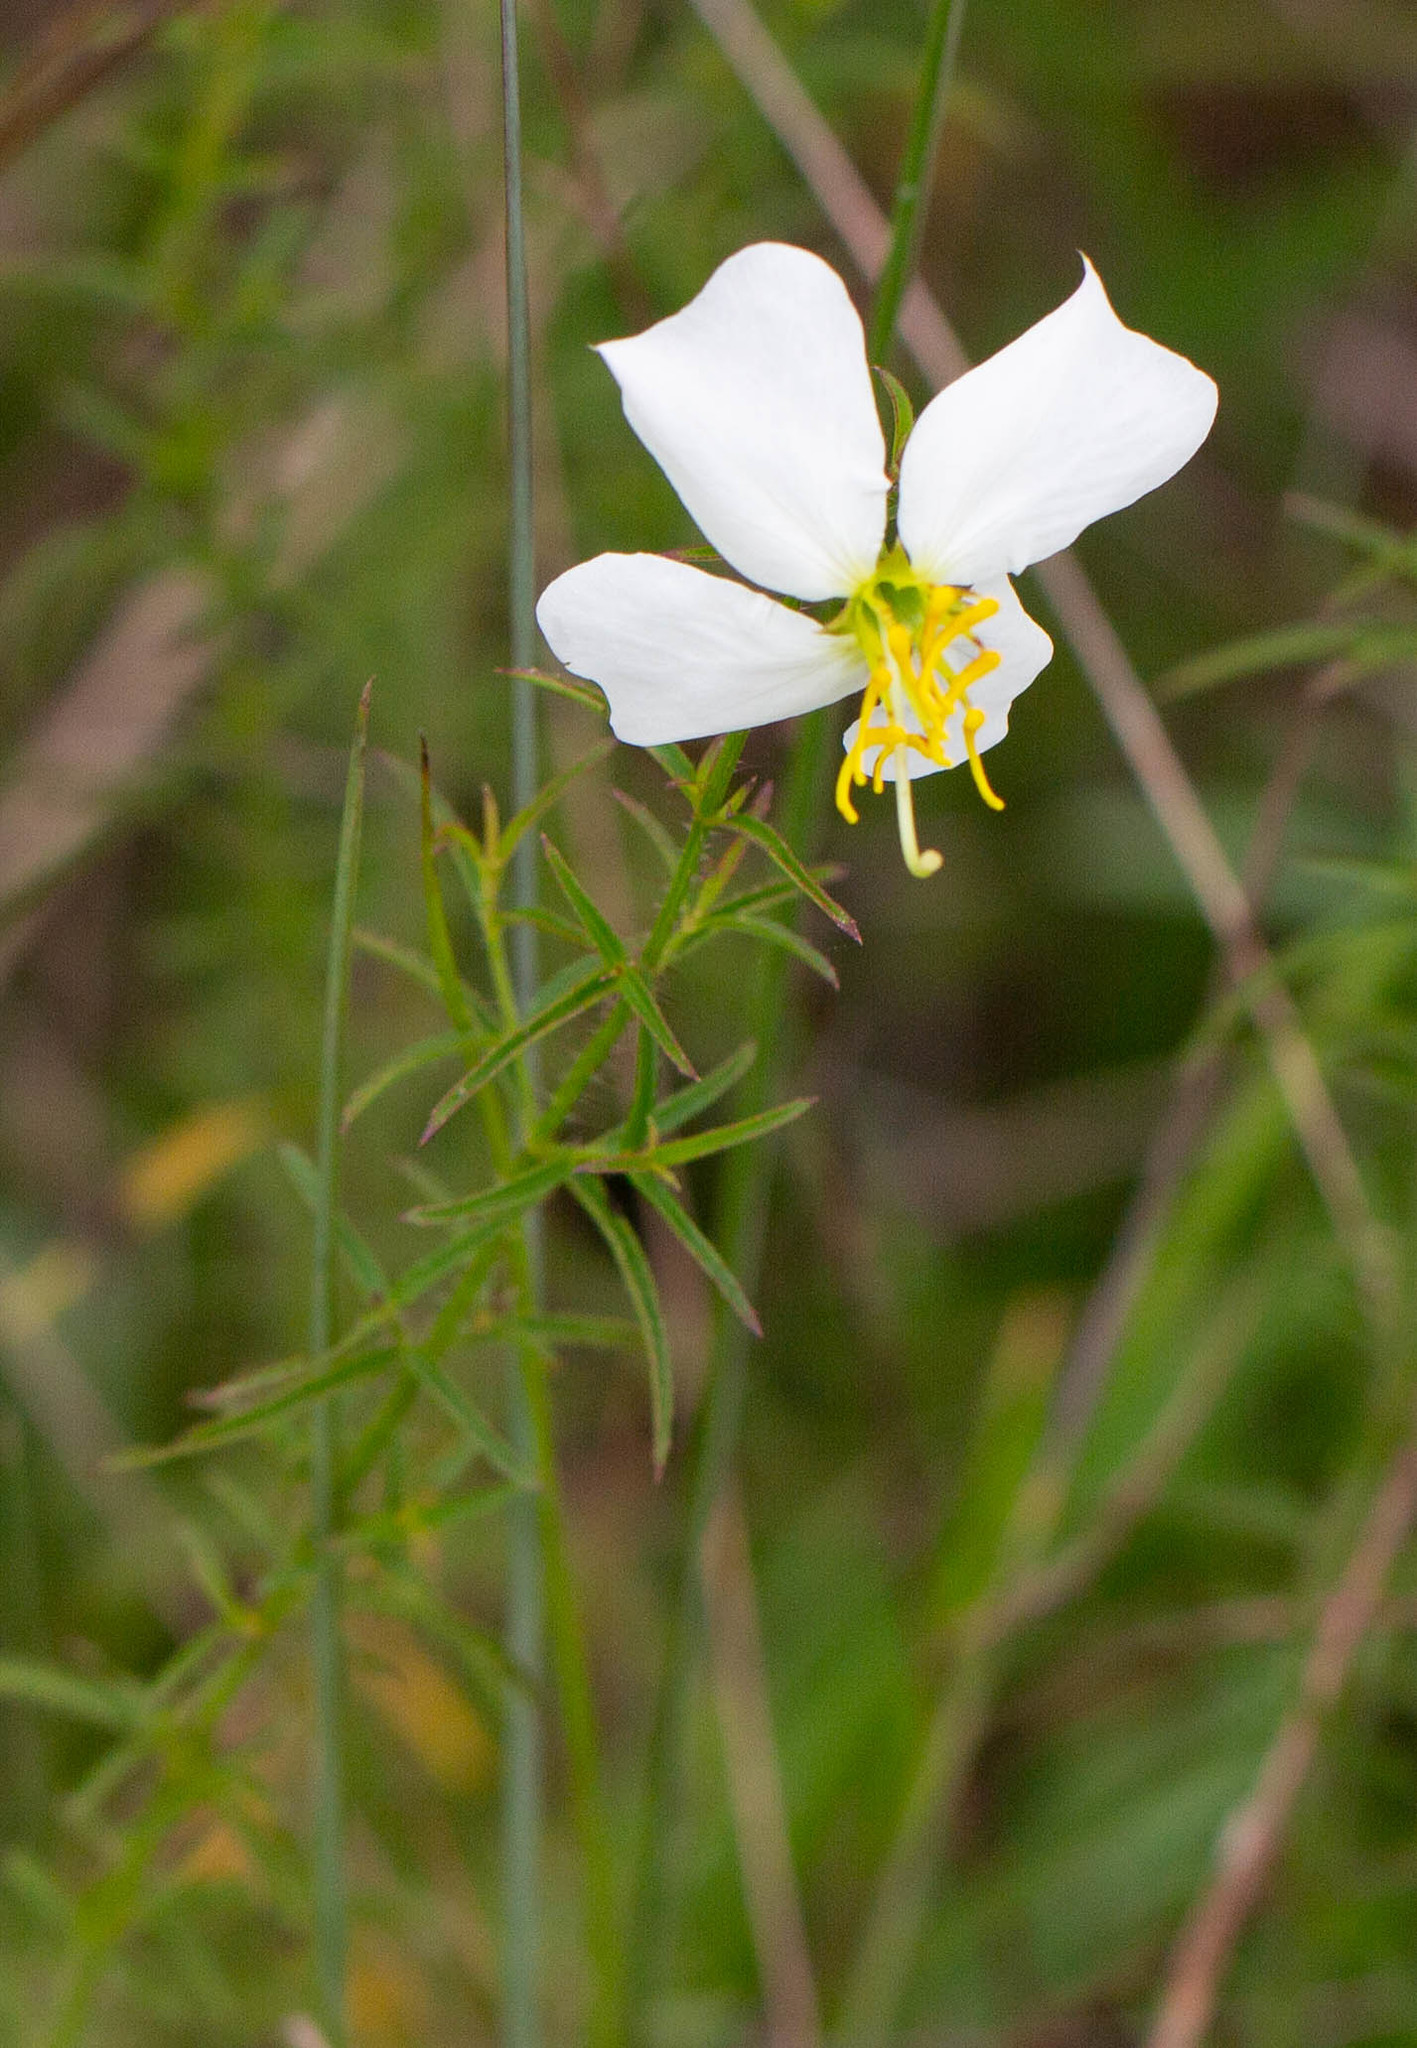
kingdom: Plantae
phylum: Tracheophyta
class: Magnoliopsida
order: Myrtales
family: Melastomataceae
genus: Rhexia
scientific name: Rhexia mariana
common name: Dull meadow-pitcher
